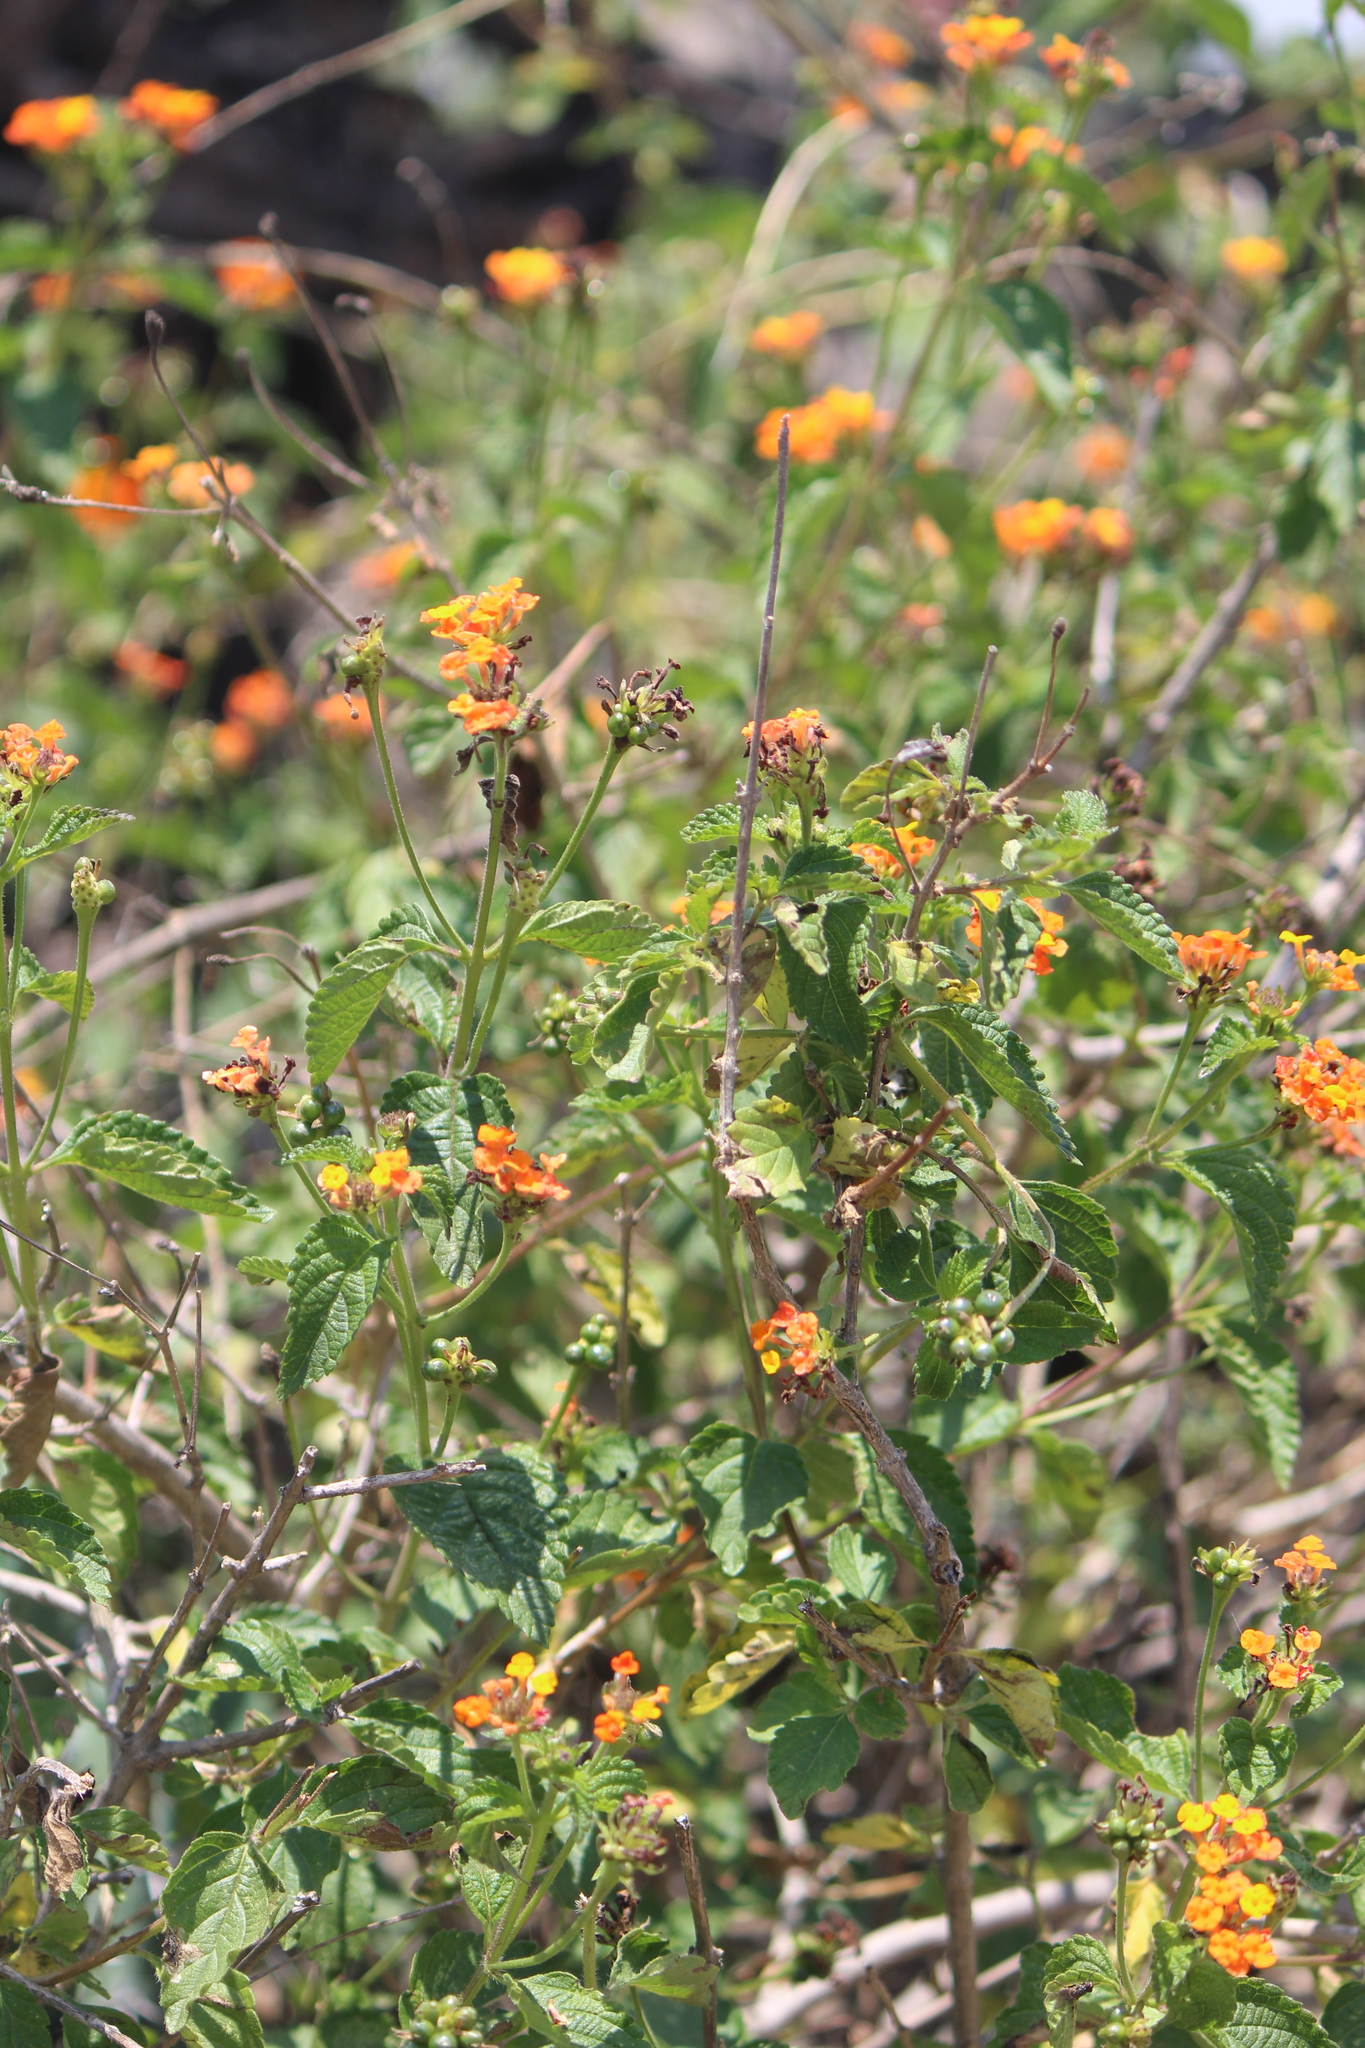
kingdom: Plantae
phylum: Tracheophyta
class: Magnoliopsida
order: Lamiales
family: Verbenaceae
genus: Lantana
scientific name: Lantana camara
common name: Lantana
